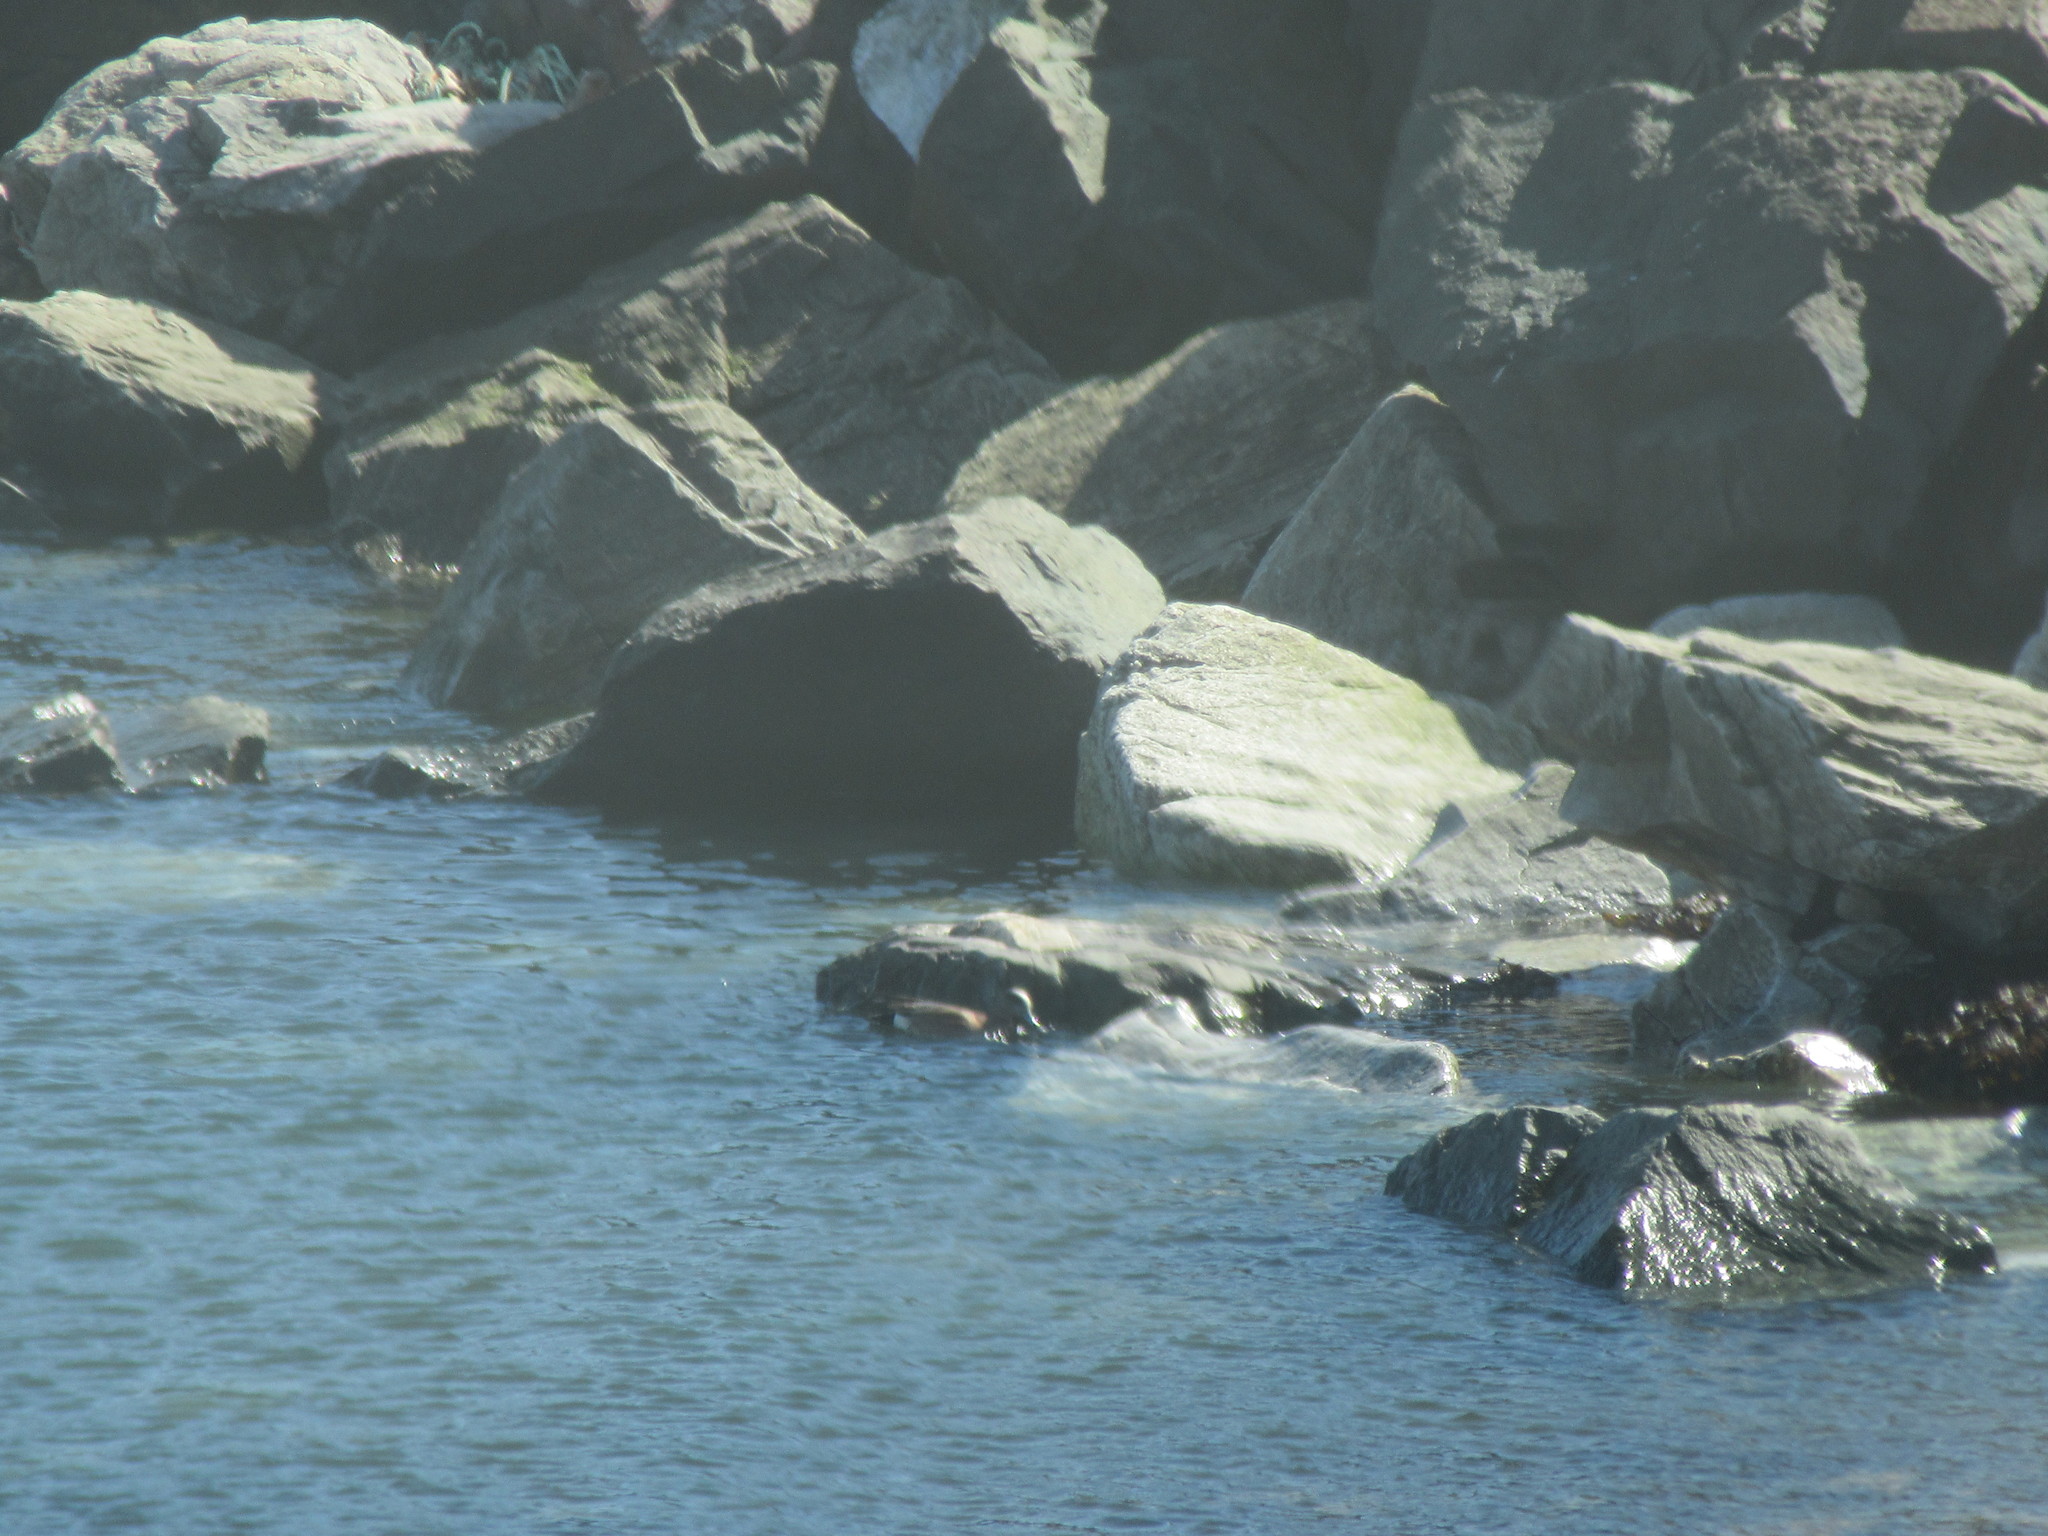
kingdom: Animalia
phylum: Chordata
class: Aves
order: Anseriformes
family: Anatidae
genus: Mareca
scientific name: Mareca americana
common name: American wigeon
